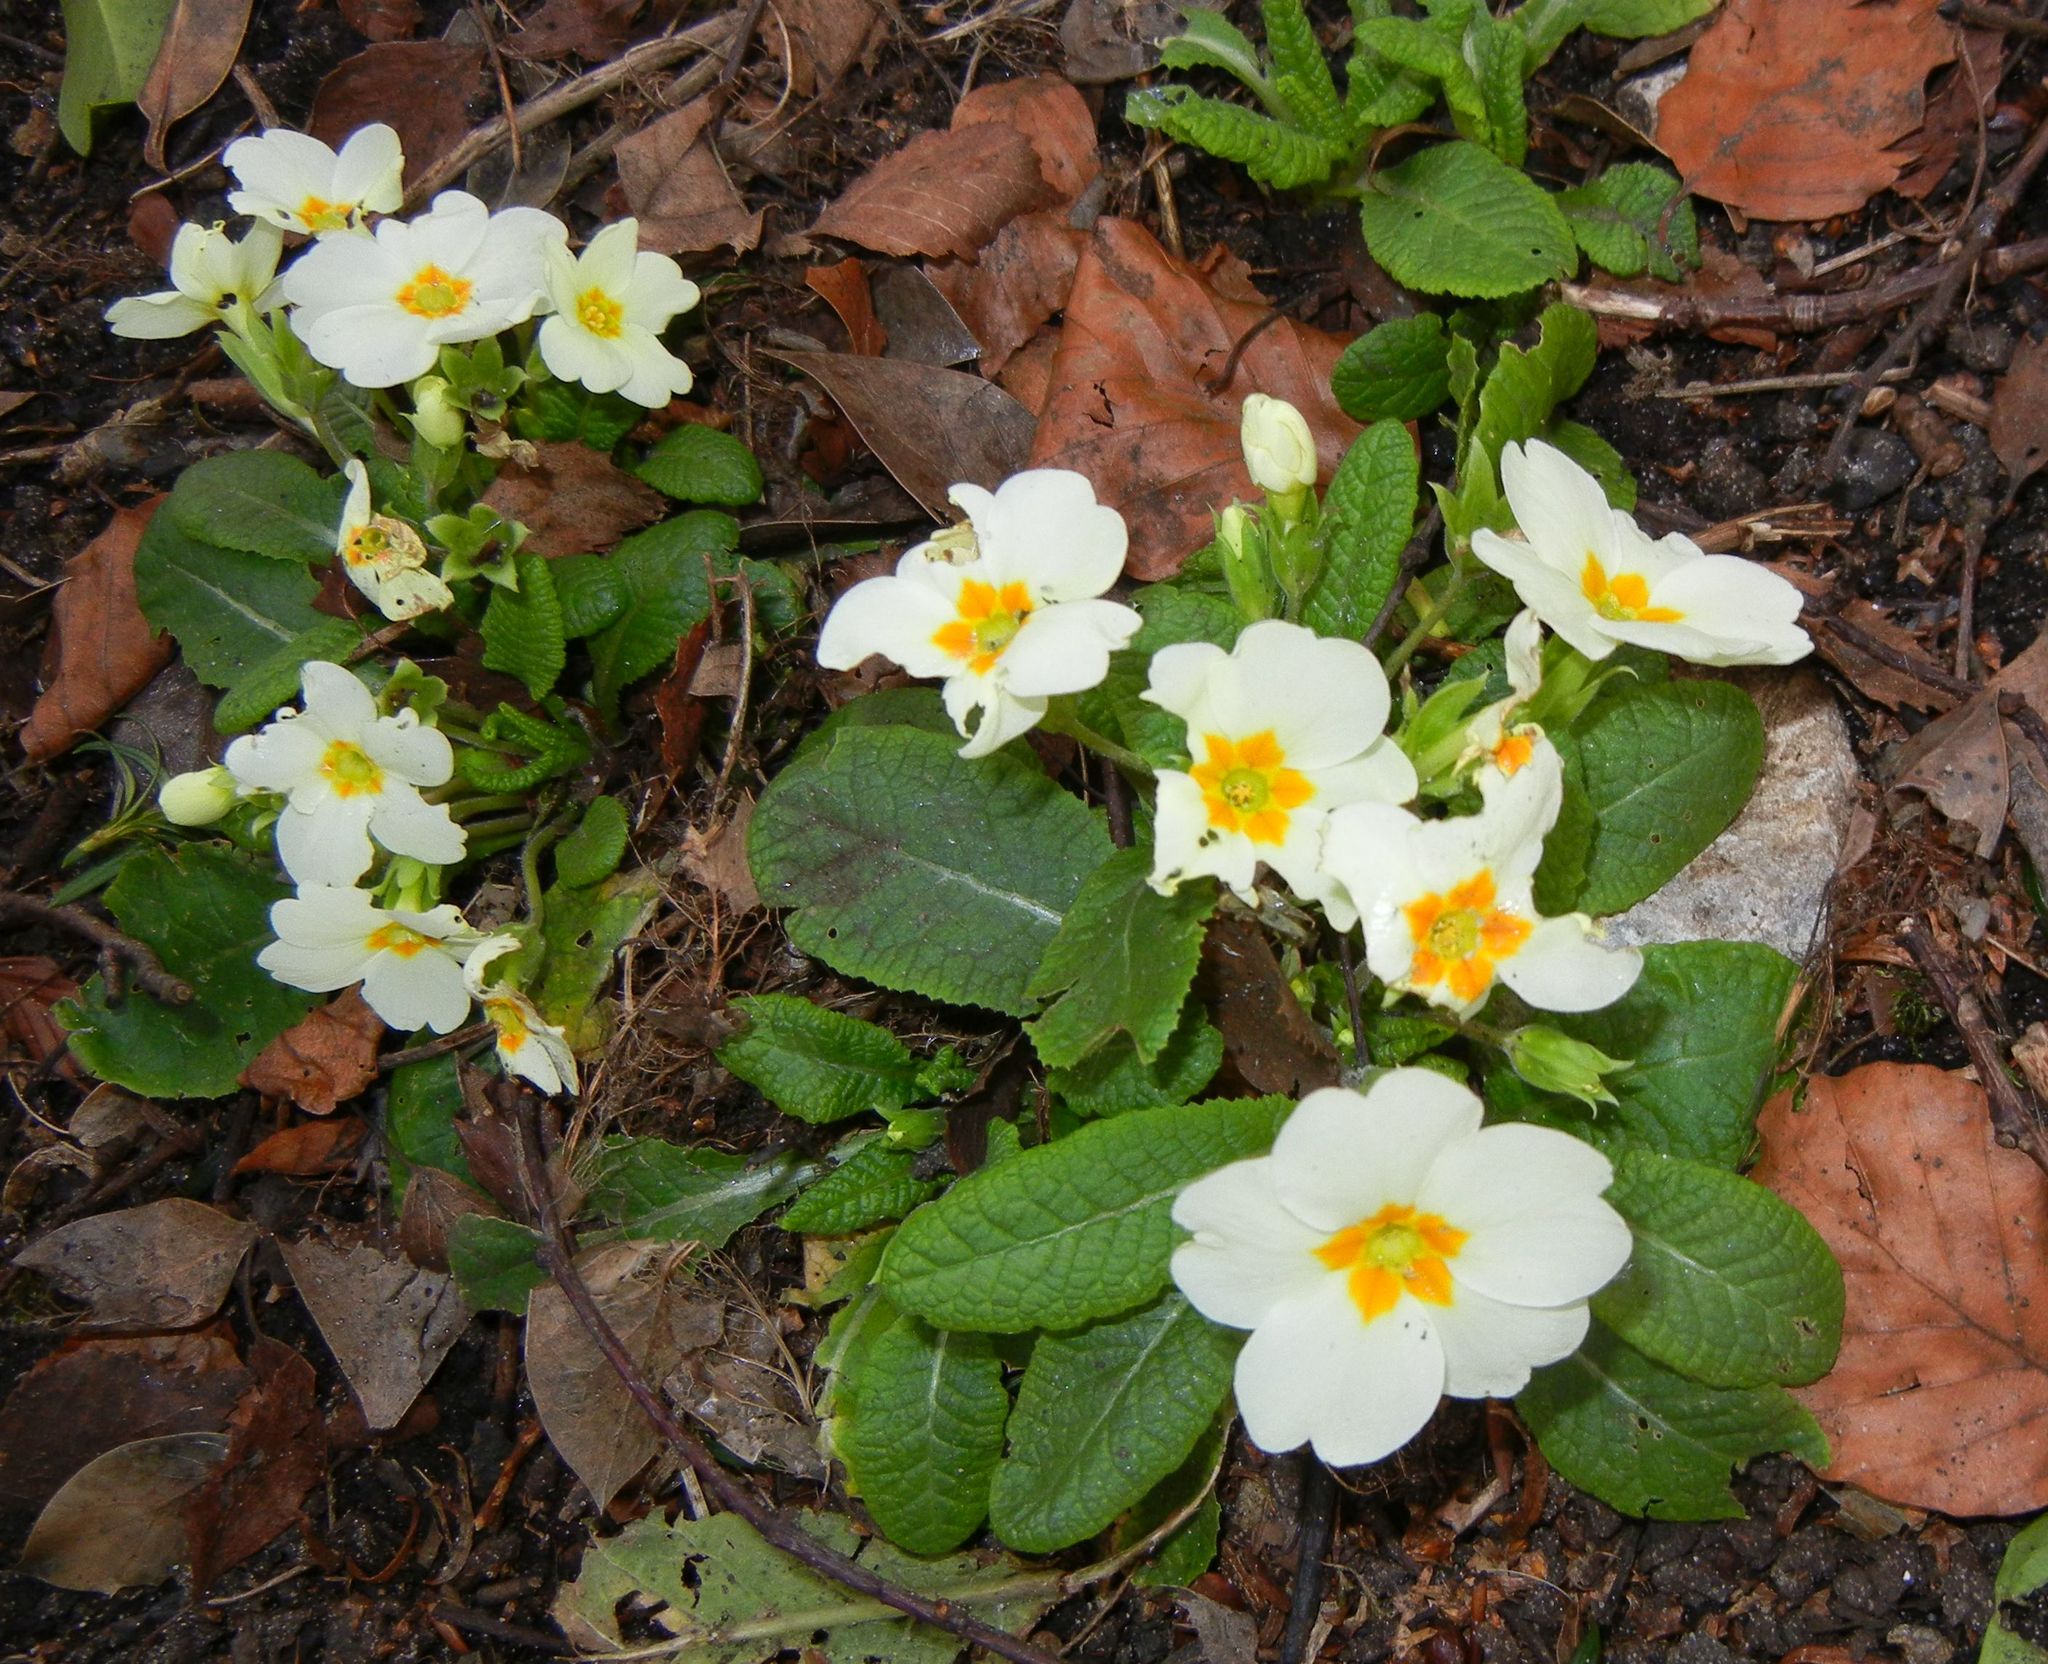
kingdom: Plantae
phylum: Tracheophyta
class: Magnoliopsida
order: Ericales
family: Primulaceae
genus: Primula
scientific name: Primula vulgaris
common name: Primrose
